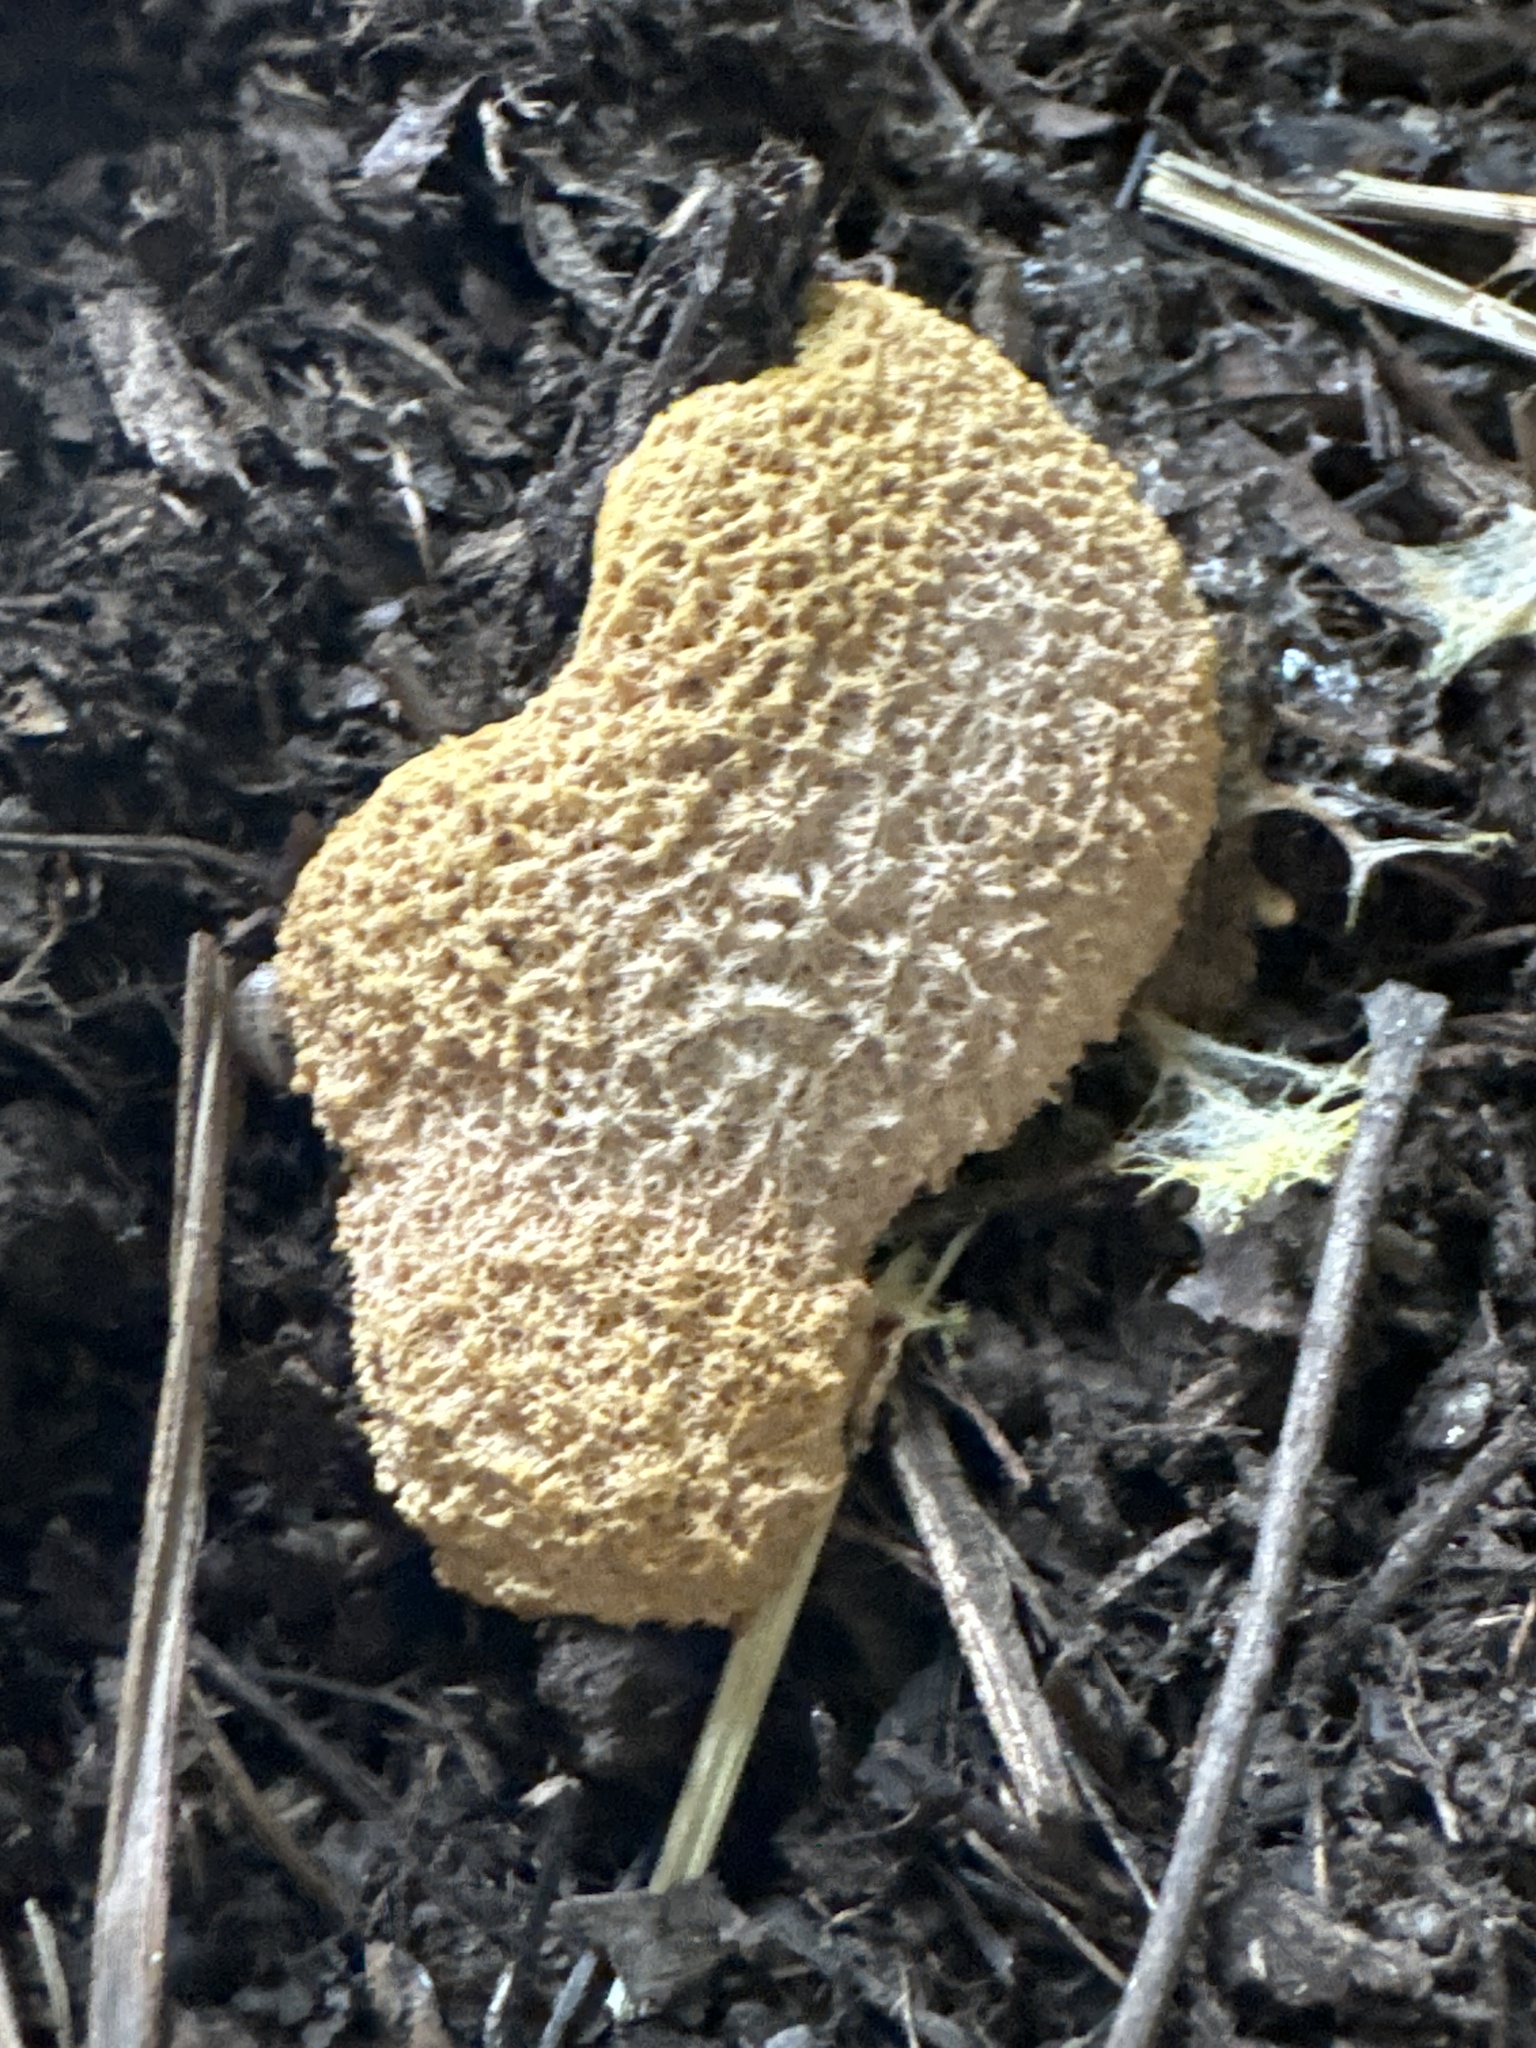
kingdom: Protozoa
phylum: Mycetozoa
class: Myxomycetes
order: Physarales
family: Physaraceae
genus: Fuligo
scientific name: Fuligo septica
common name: Dog vomit slime mold
